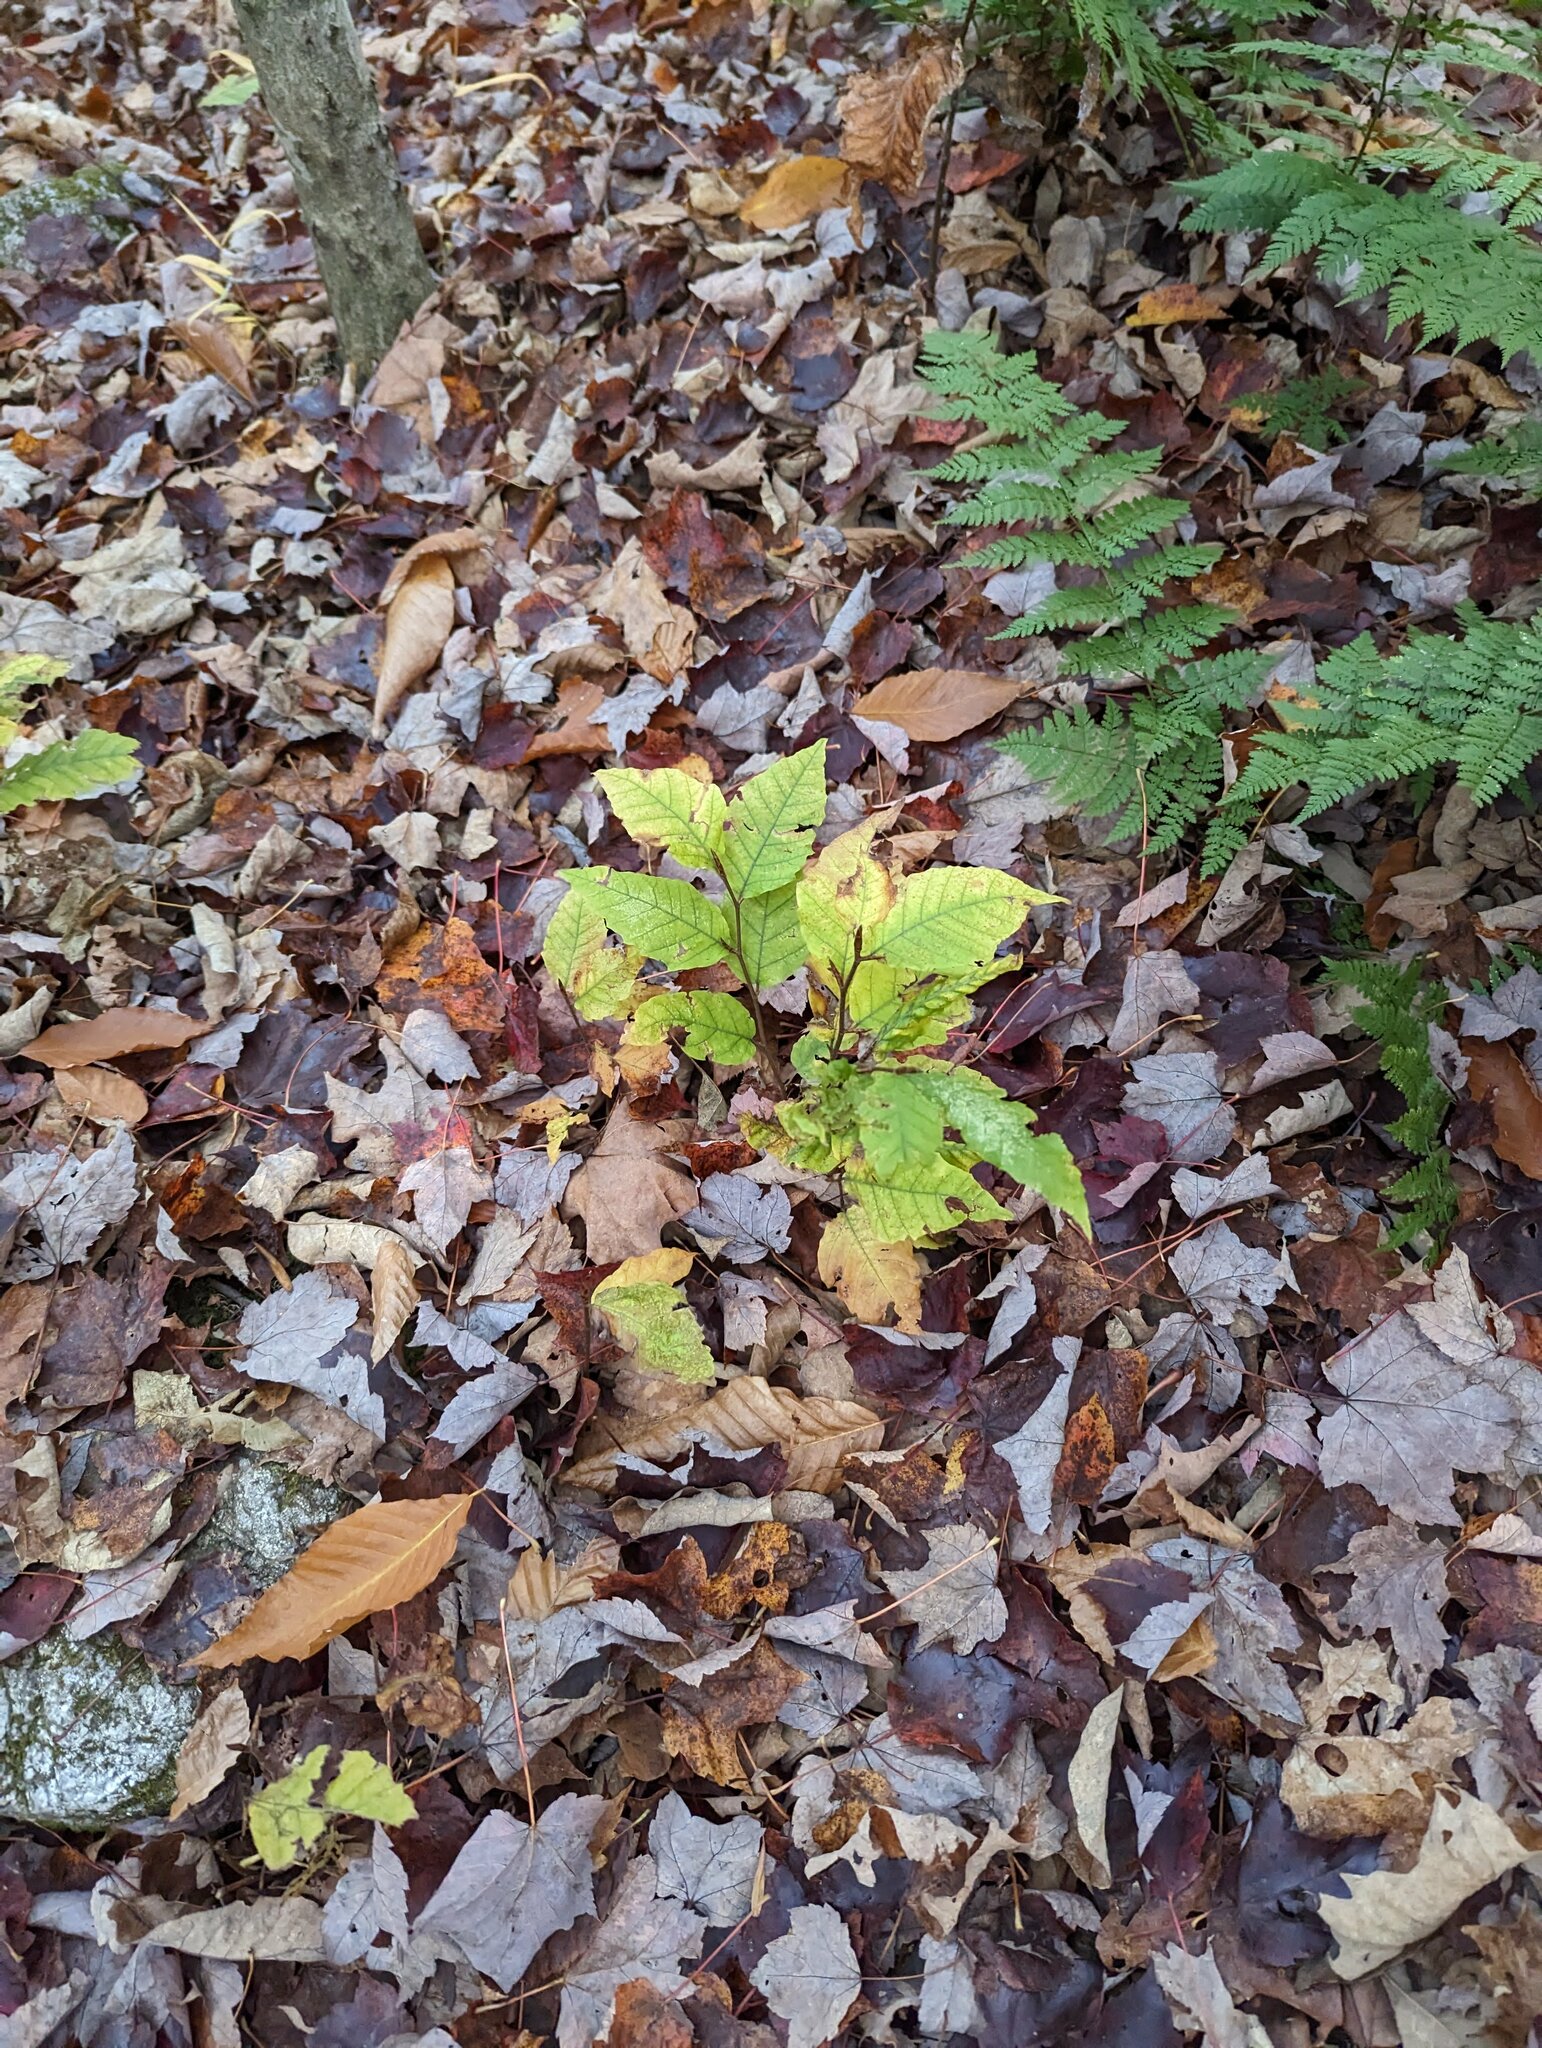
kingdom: Plantae
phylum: Tracheophyta
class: Magnoliopsida
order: Fagales
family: Fagaceae
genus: Fagus
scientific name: Fagus grandifolia
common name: American beech
